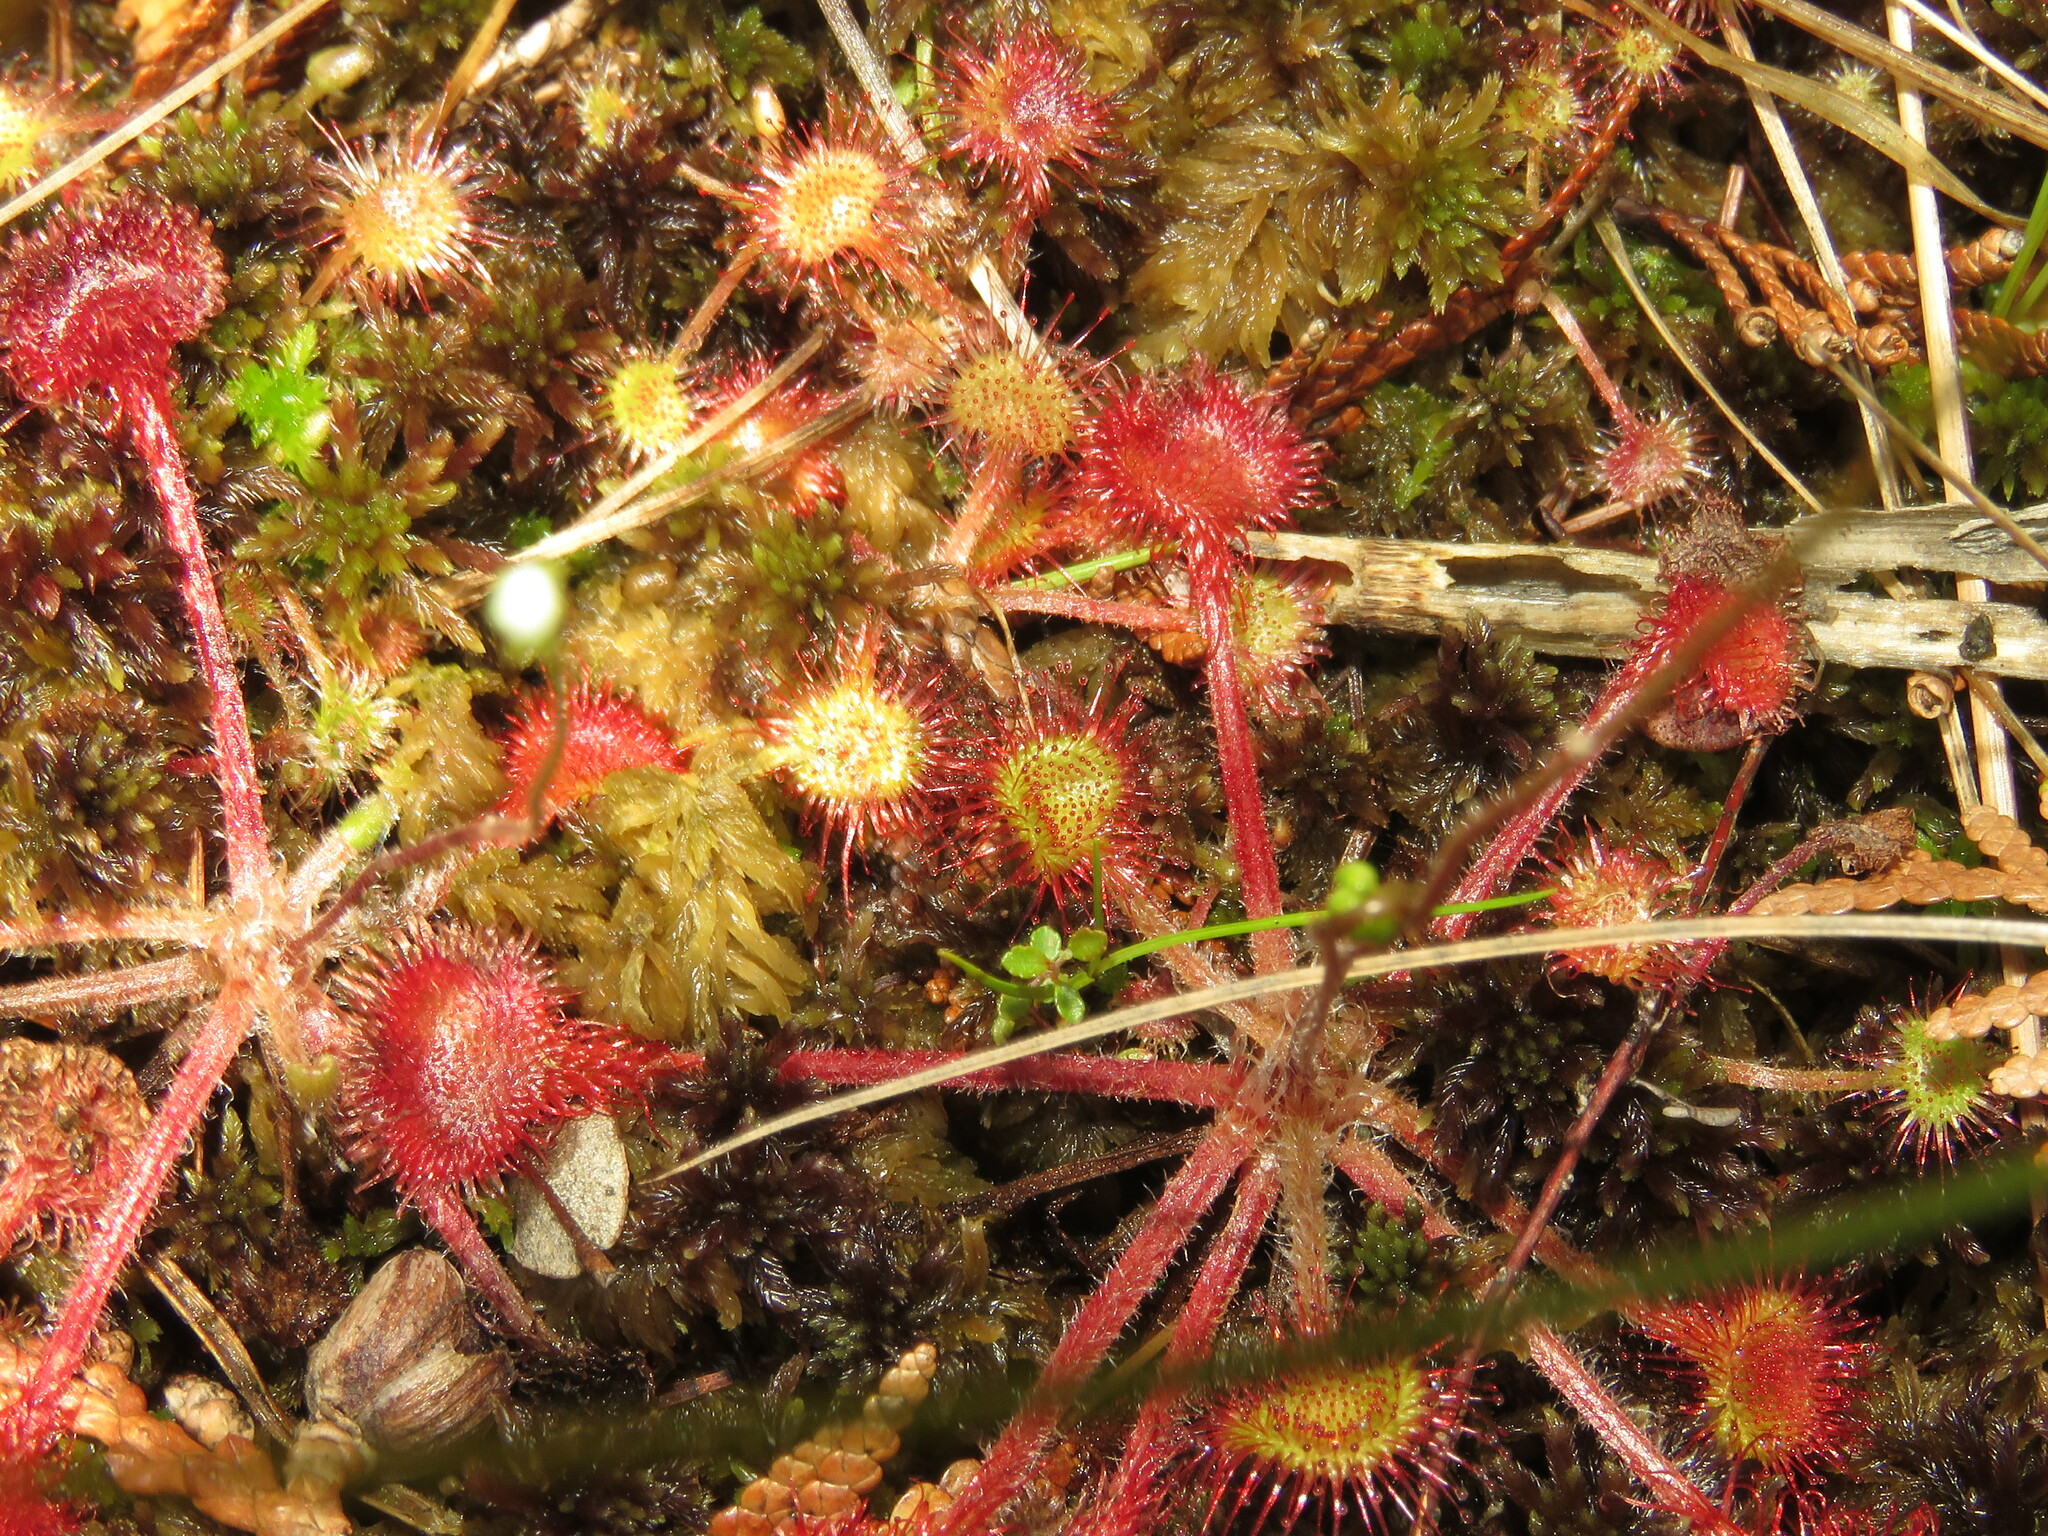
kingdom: Plantae
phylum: Tracheophyta
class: Magnoliopsida
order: Caryophyllales
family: Droseraceae
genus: Drosera
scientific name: Drosera rotundifolia
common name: Round-leaved sundew
